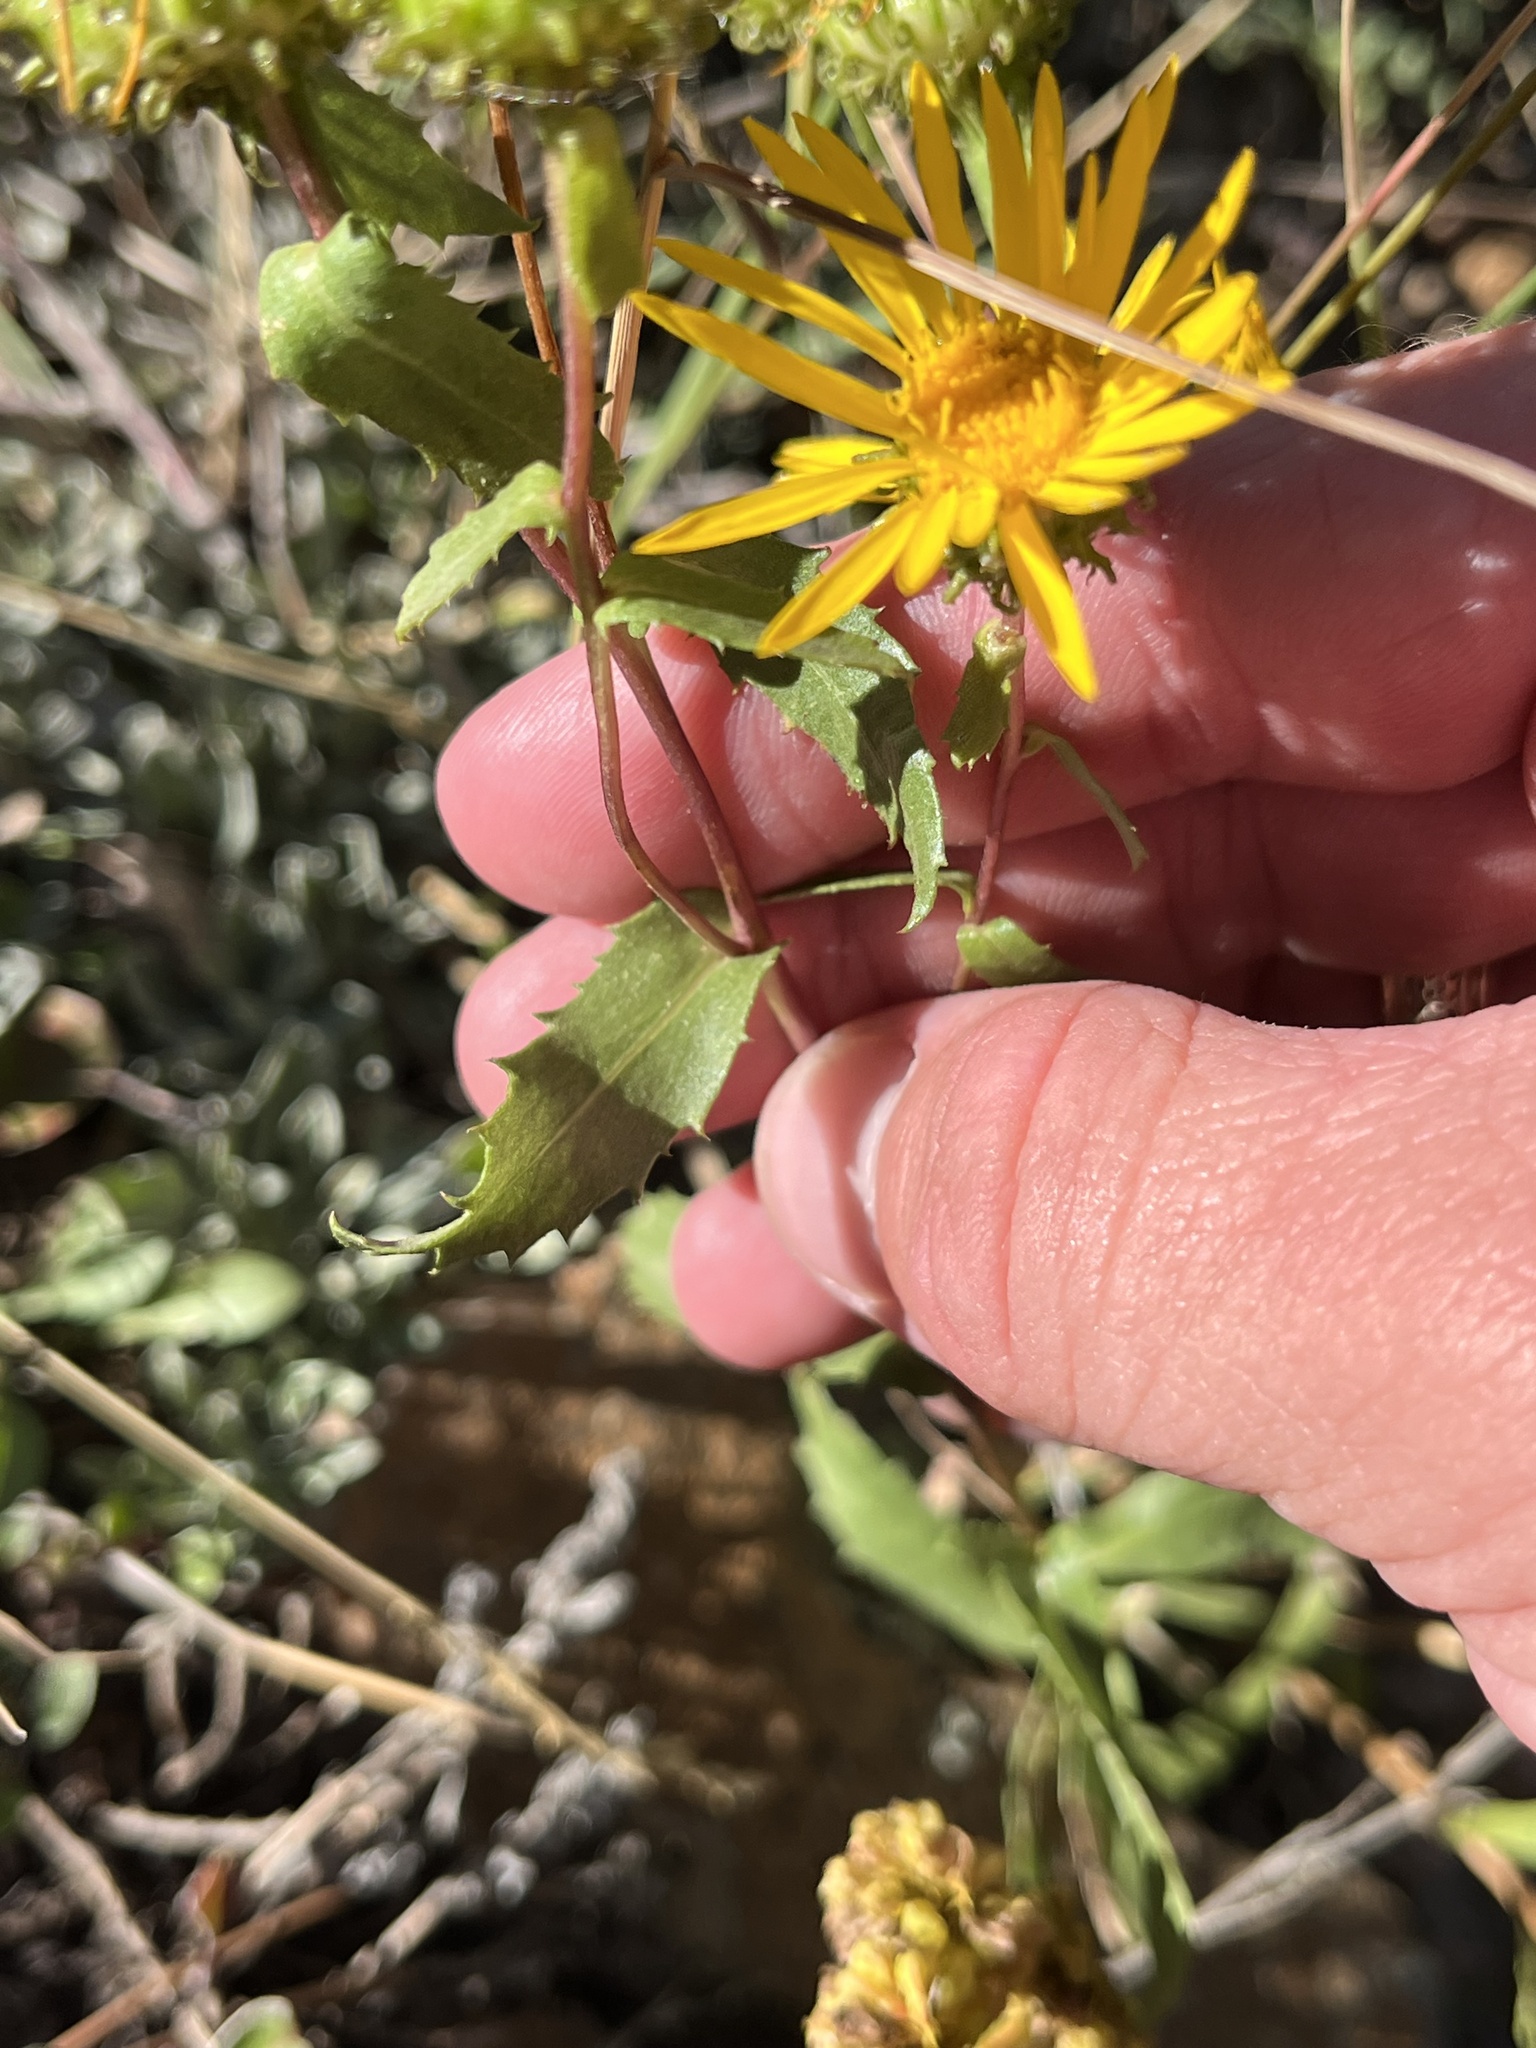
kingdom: Plantae
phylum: Tracheophyta
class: Magnoliopsida
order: Asterales
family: Asteraceae
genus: Grindelia
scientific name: Grindelia subalpina
